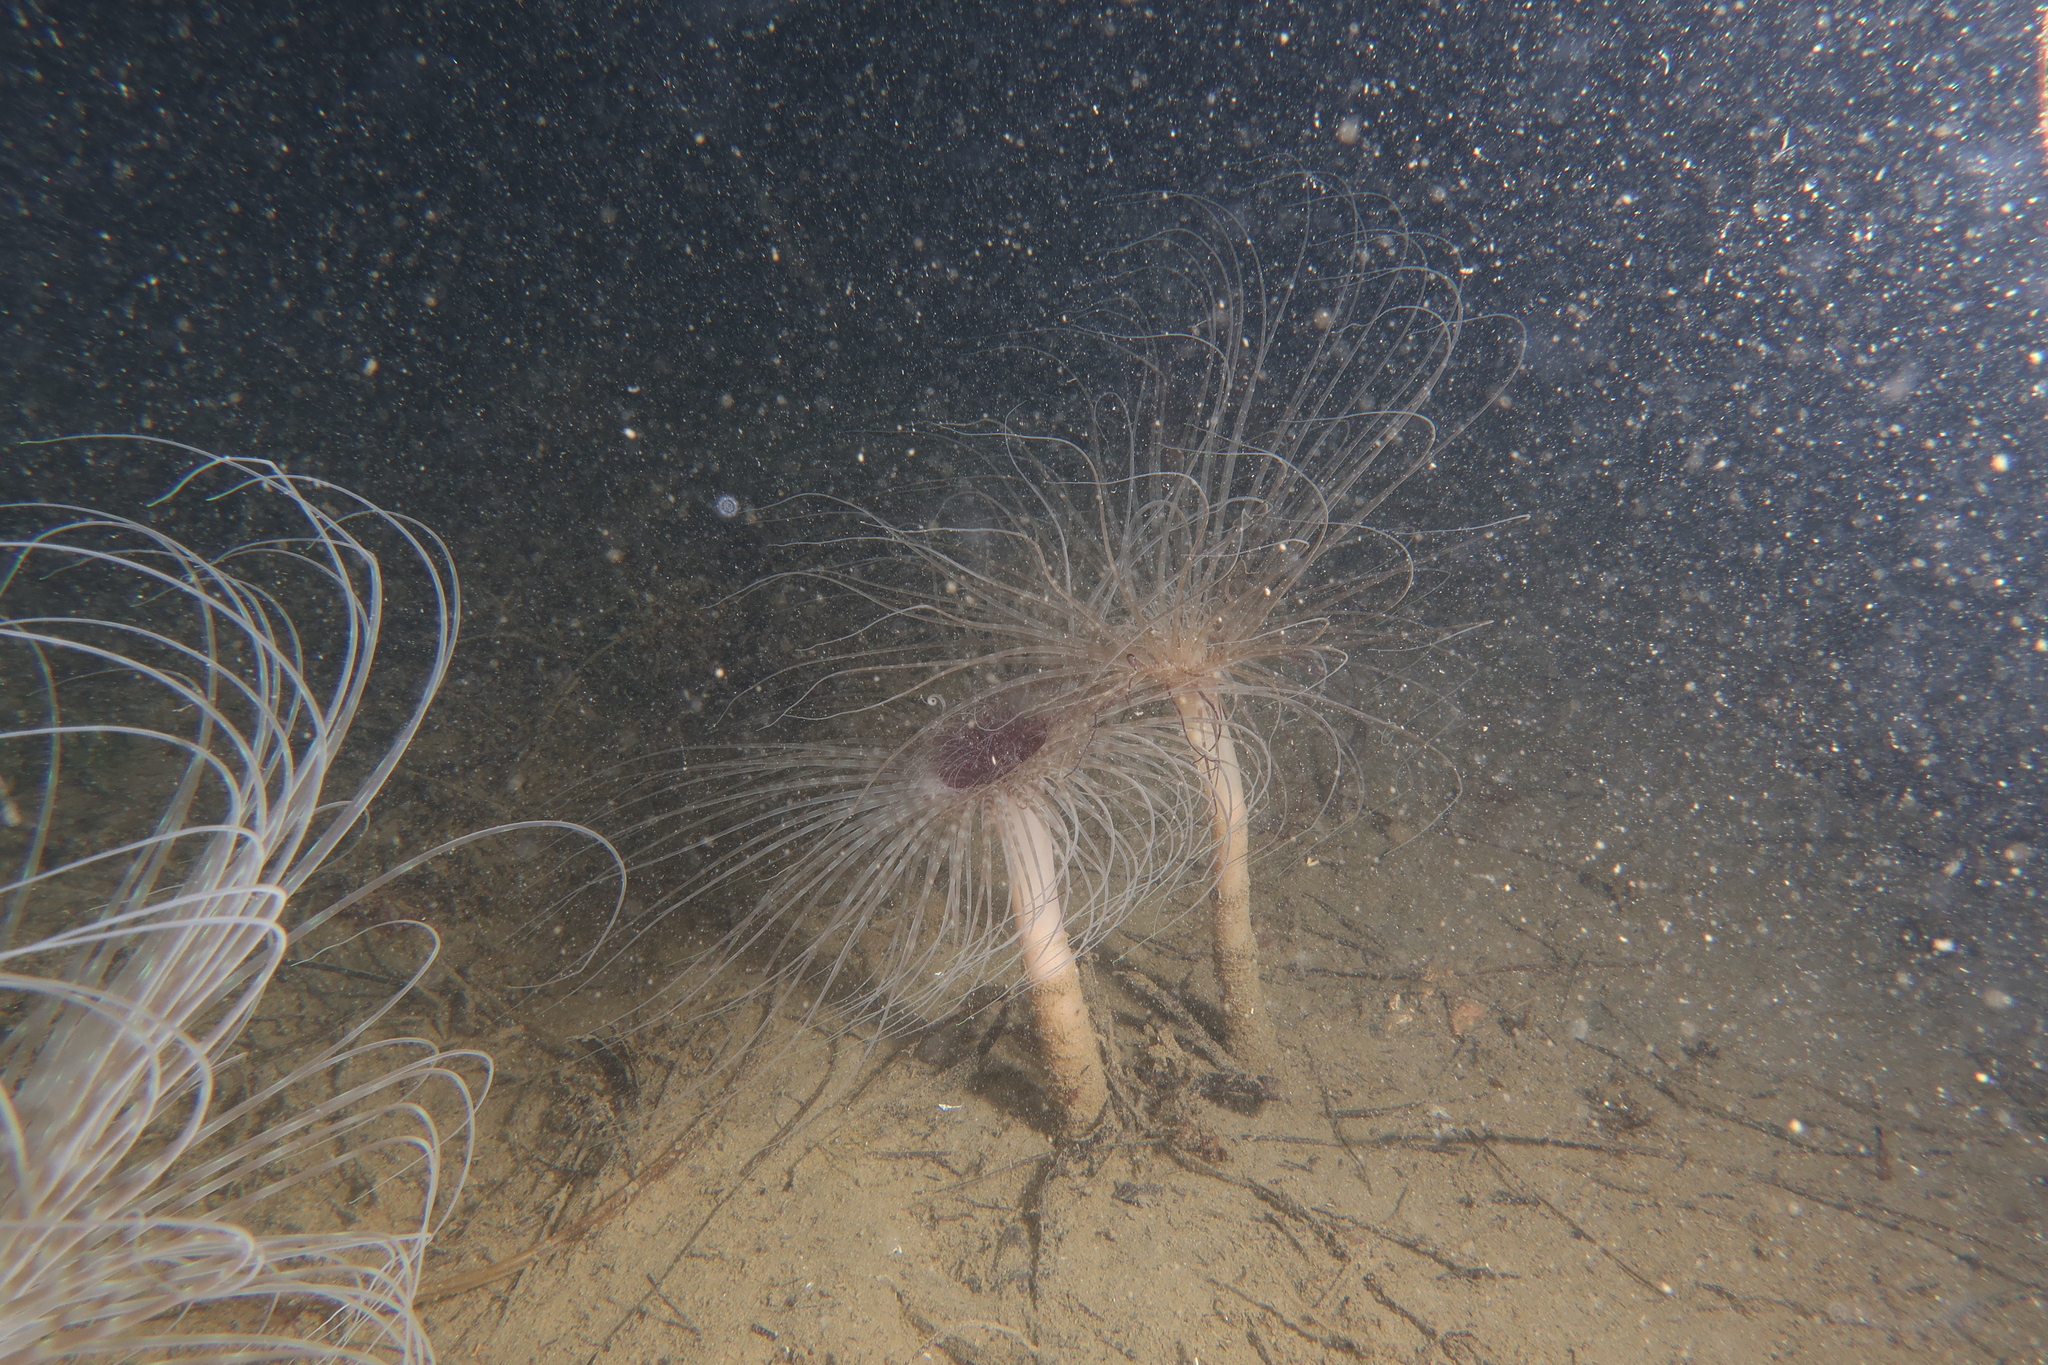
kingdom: Animalia
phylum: Cnidaria
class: Anthozoa
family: Cerianthidae
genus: Pachycerianthus
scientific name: Pachycerianthus solitarius
